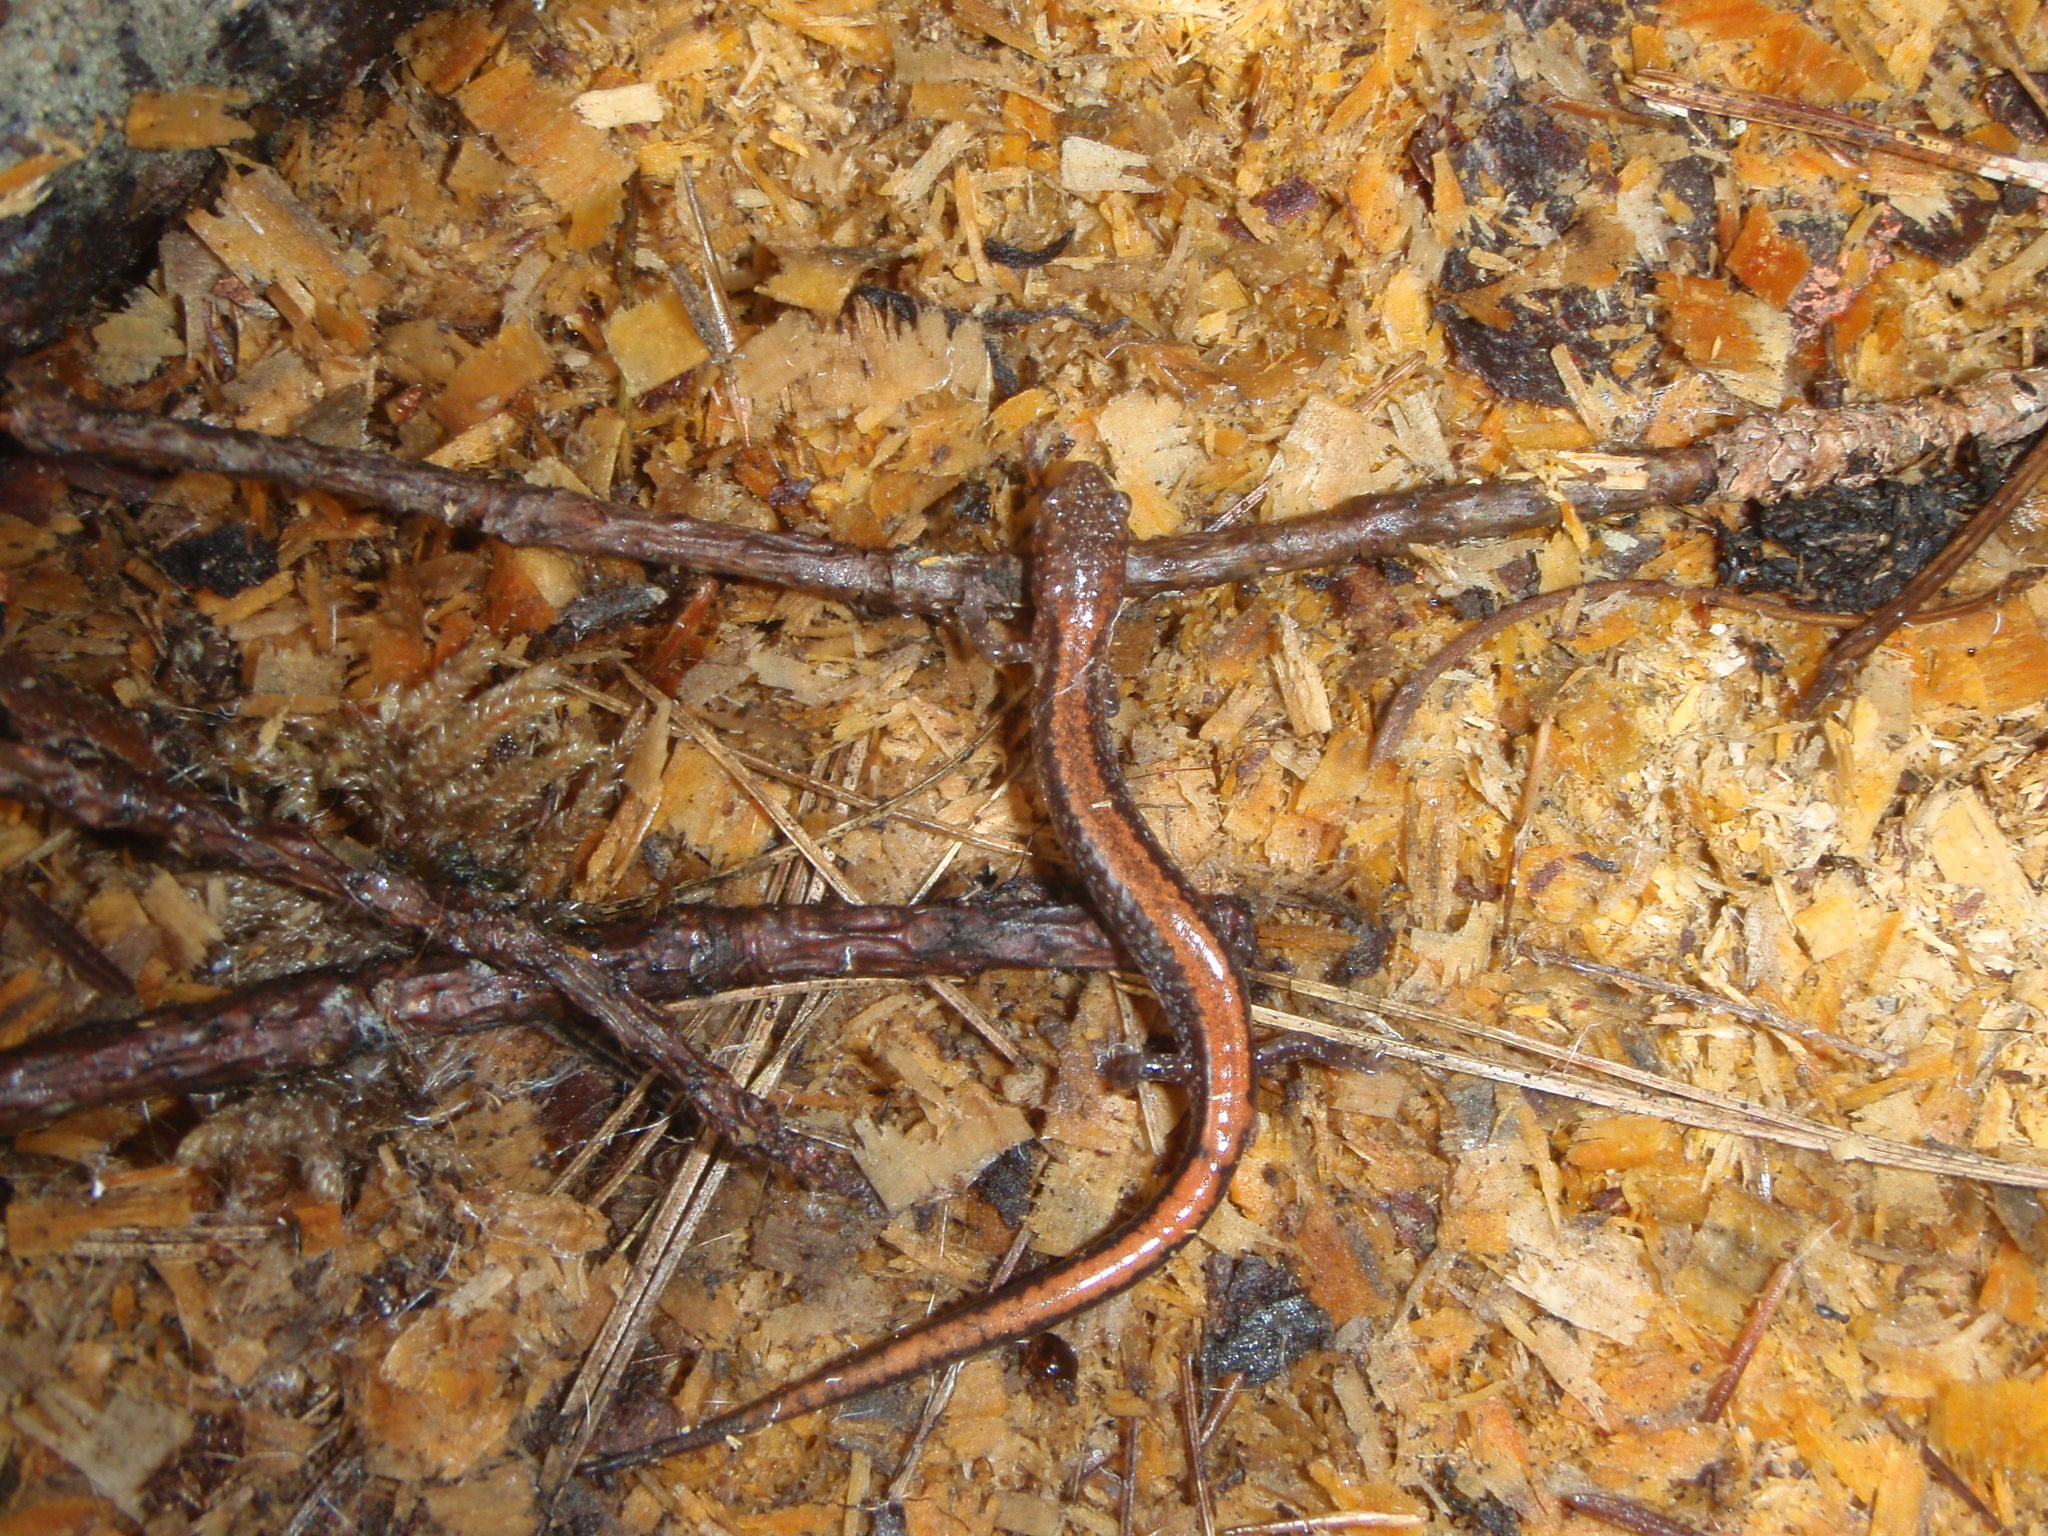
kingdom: Animalia
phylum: Chordata
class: Amphibia
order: Caudata
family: Plethodontidae
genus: Plethodon
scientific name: Plethodon cinereus
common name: Redback salamander
